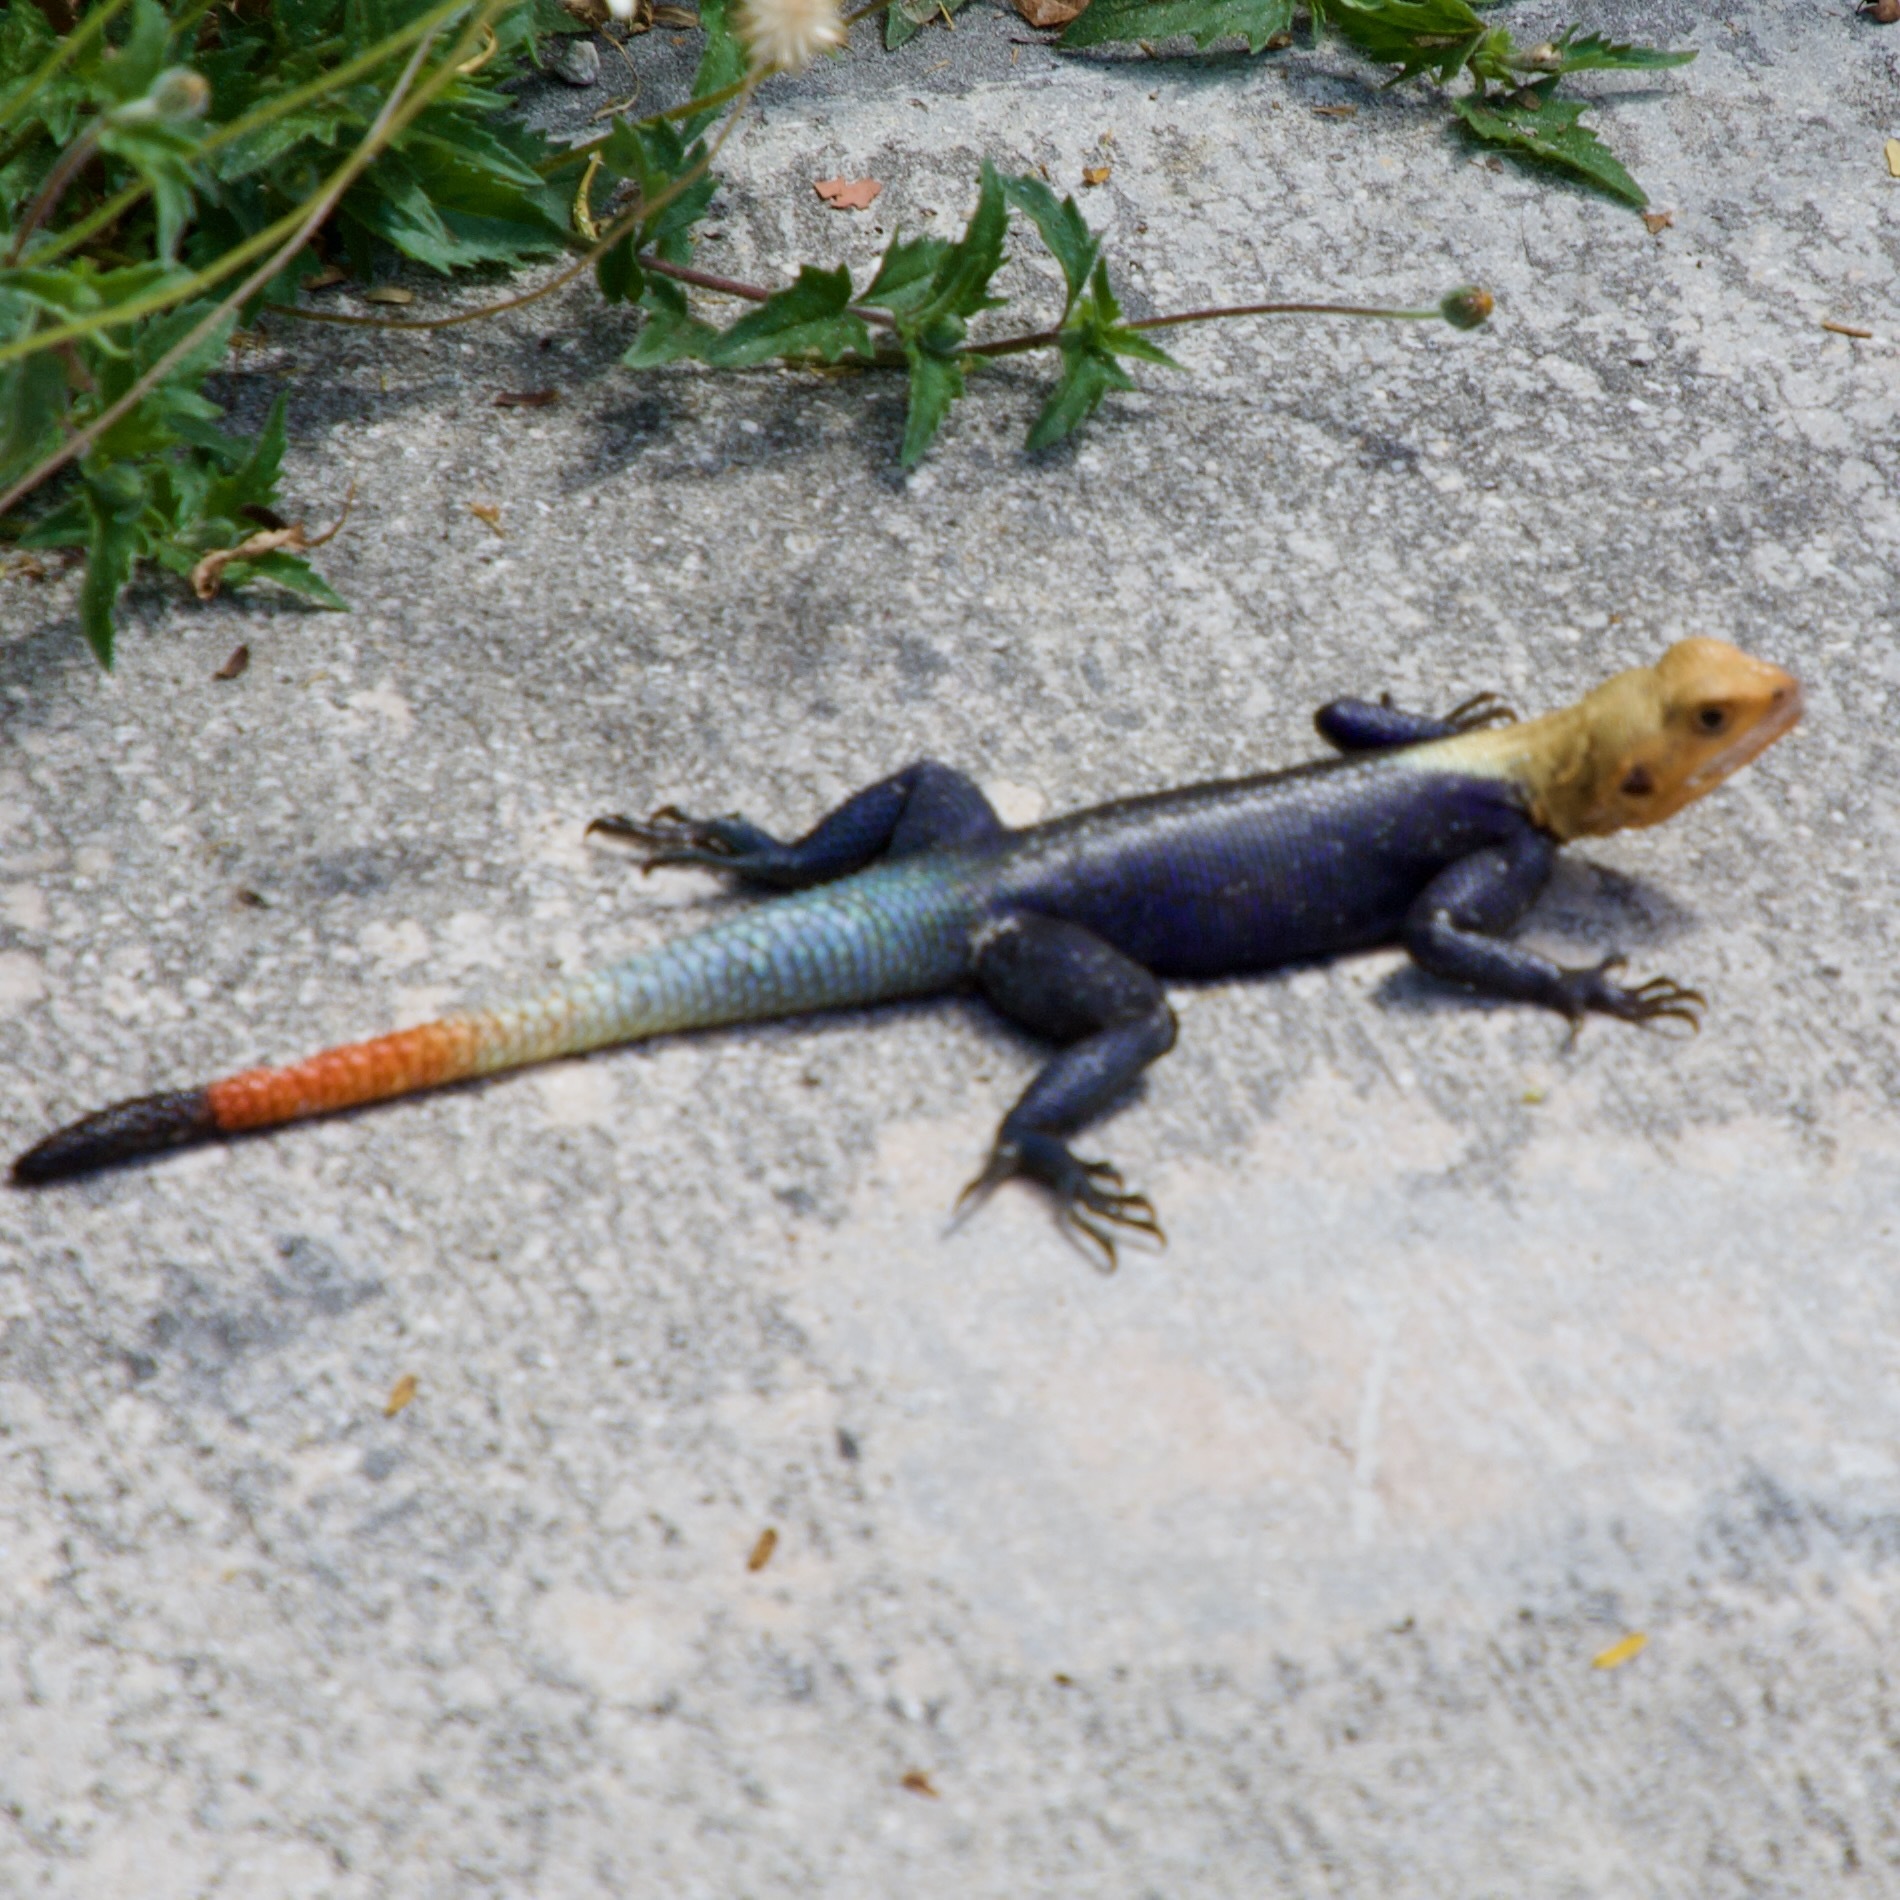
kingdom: Animalia
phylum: Chordata
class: Squamata
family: Agamidae
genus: Agama
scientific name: Agama picticauda
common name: Red-headed agama
